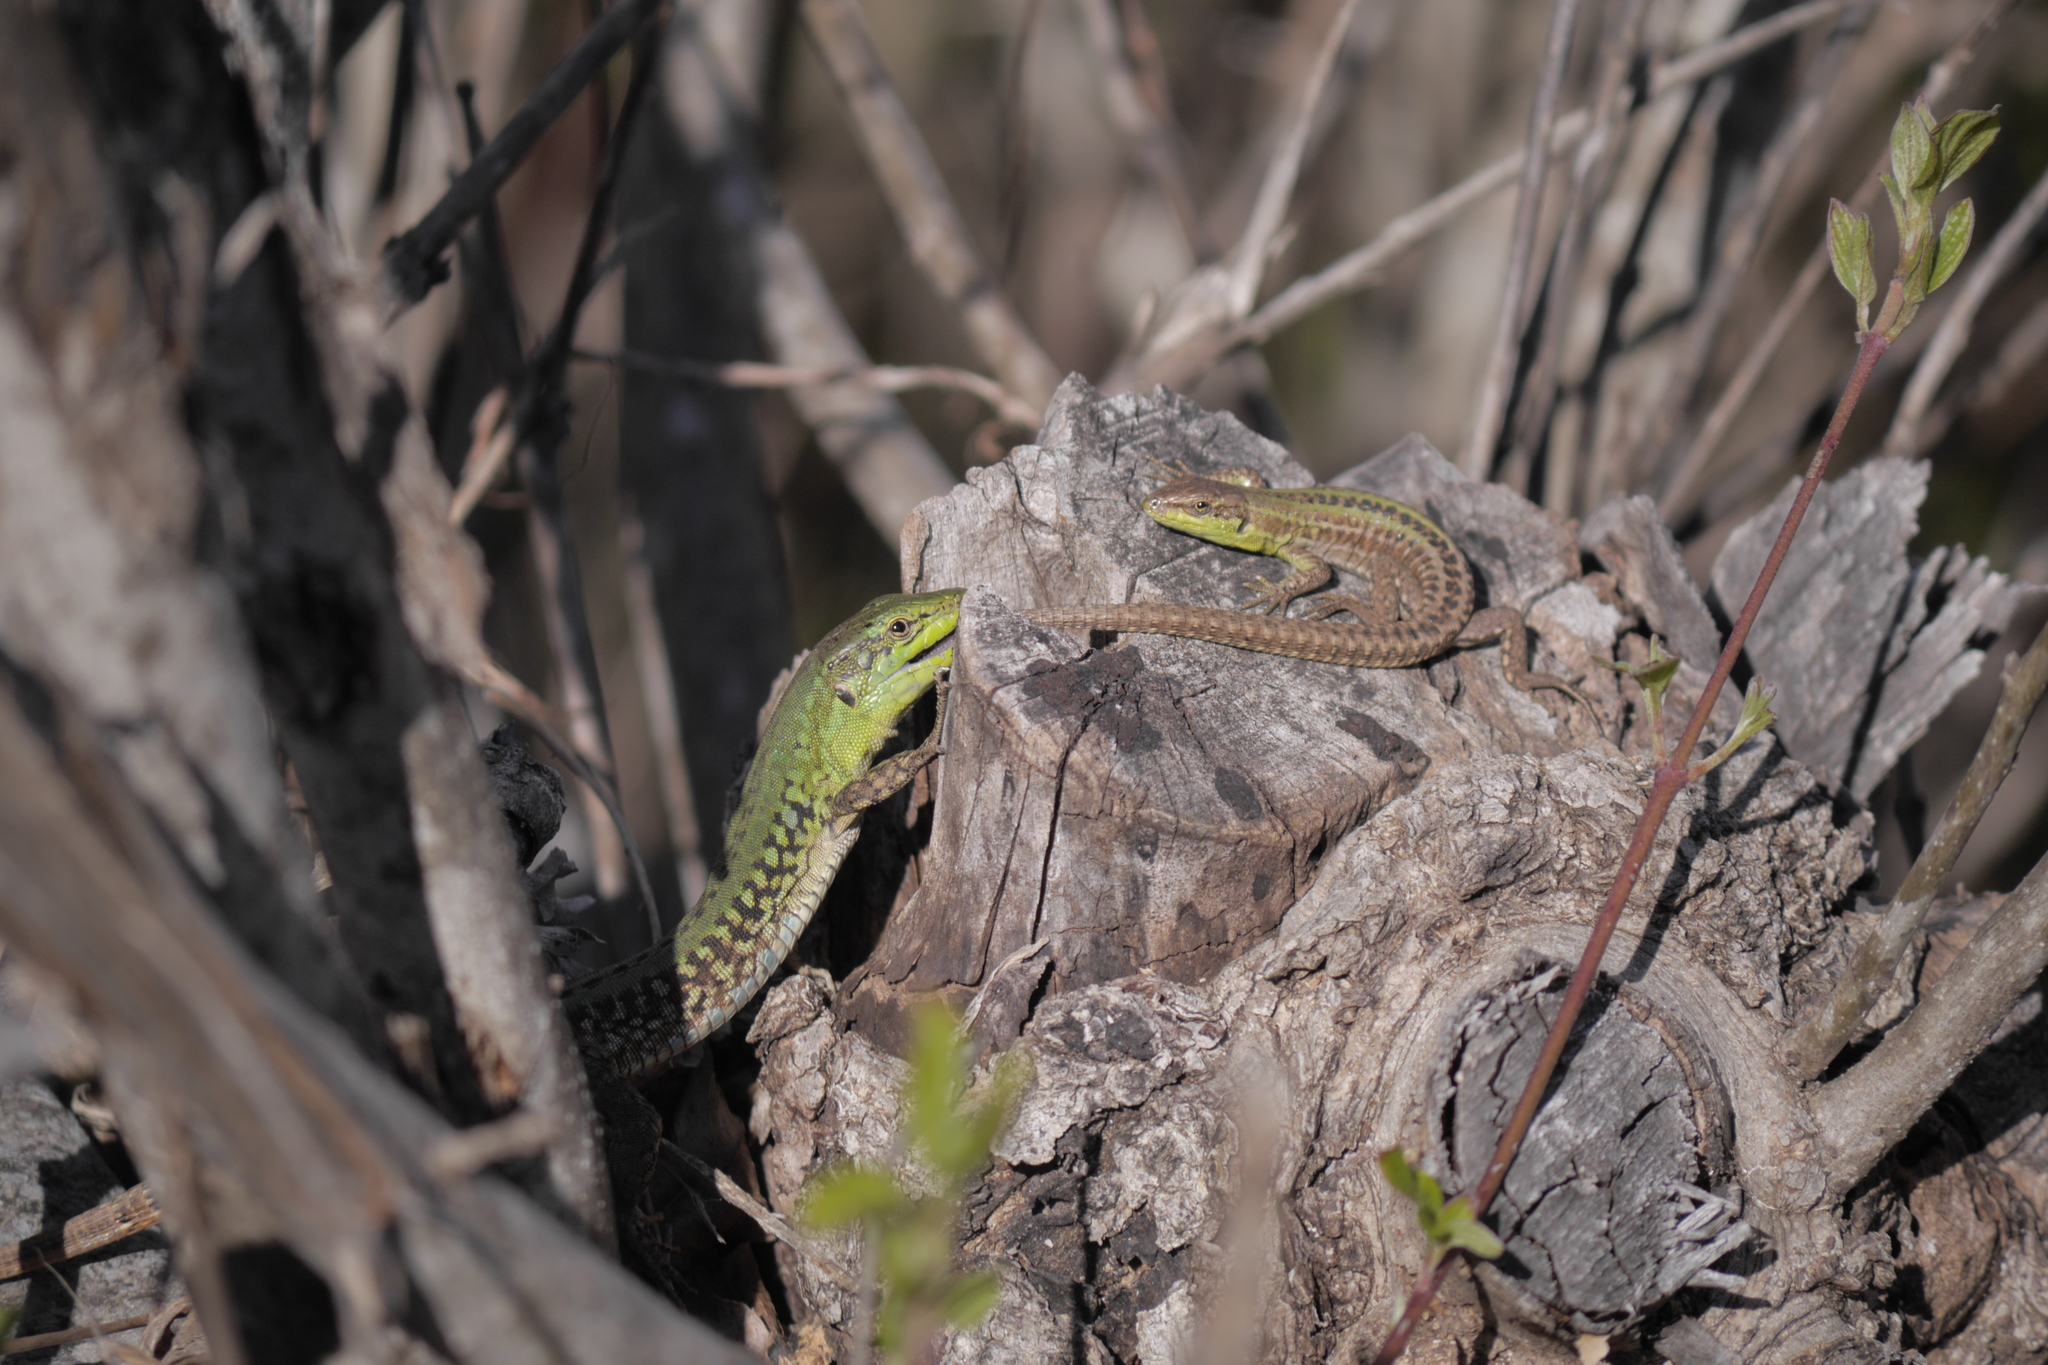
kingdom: Animalia
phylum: Chordata
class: Squamata
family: Lacertidae
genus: Podarcis
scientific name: Podarcis siculus
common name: Italian wall lizard
